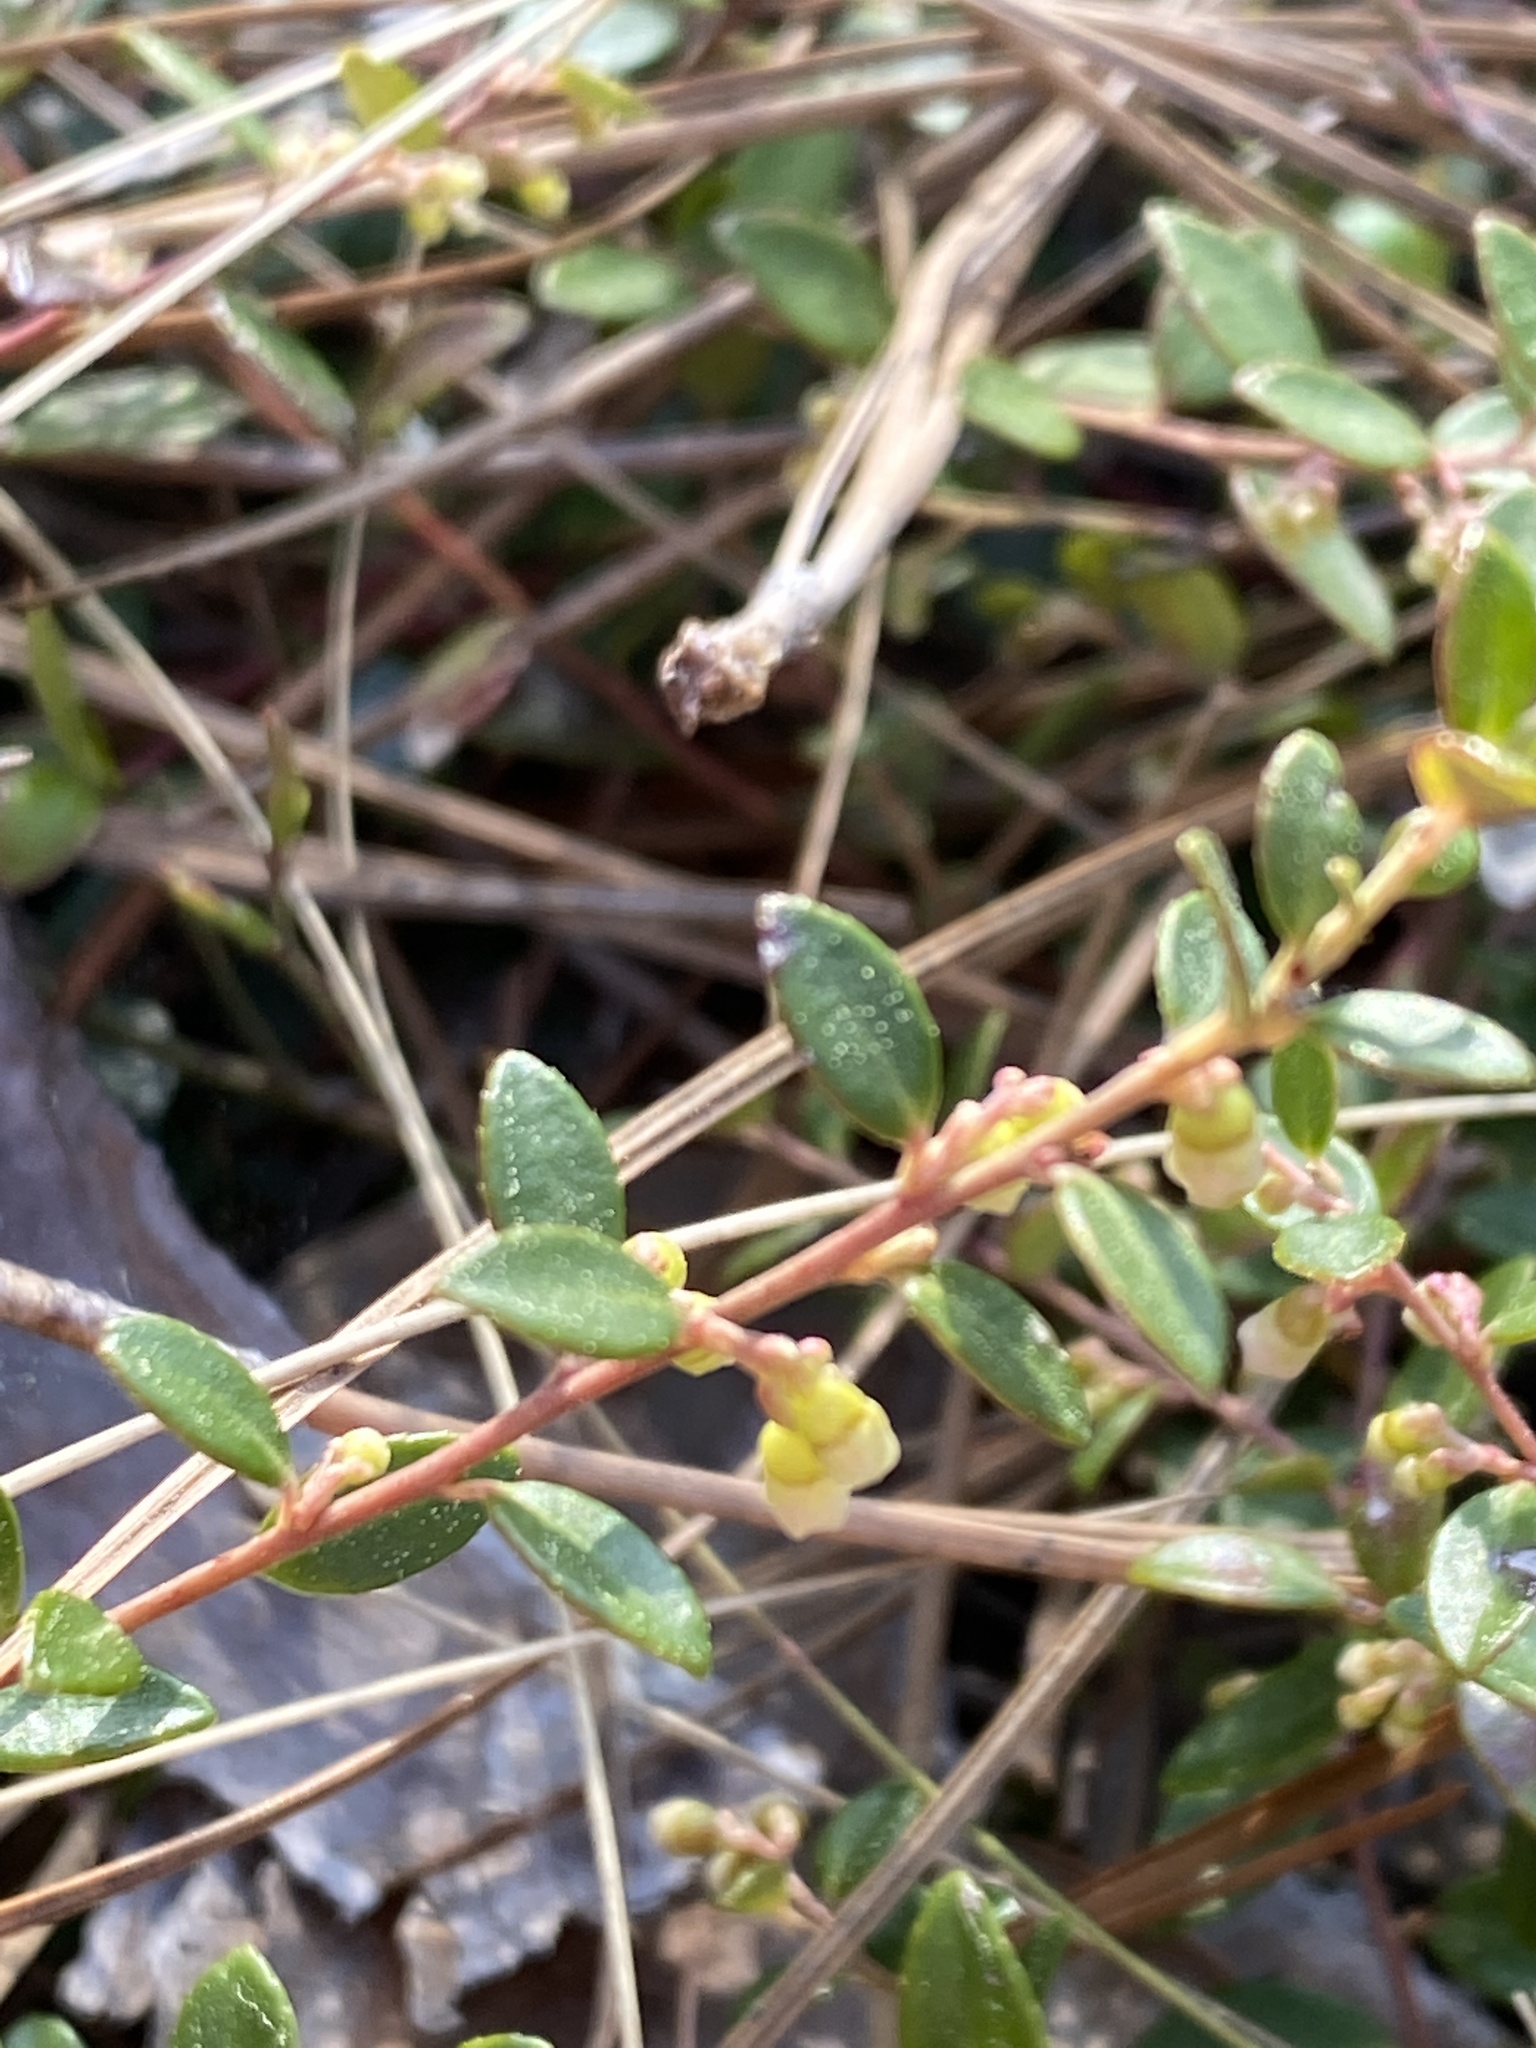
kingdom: Plantae
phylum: Tracheophyta
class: Magnoliopsida
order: Ericales
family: Ericaceae
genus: Vaccinium
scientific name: Vaccinium crassifolium
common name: Creeping blueberry
